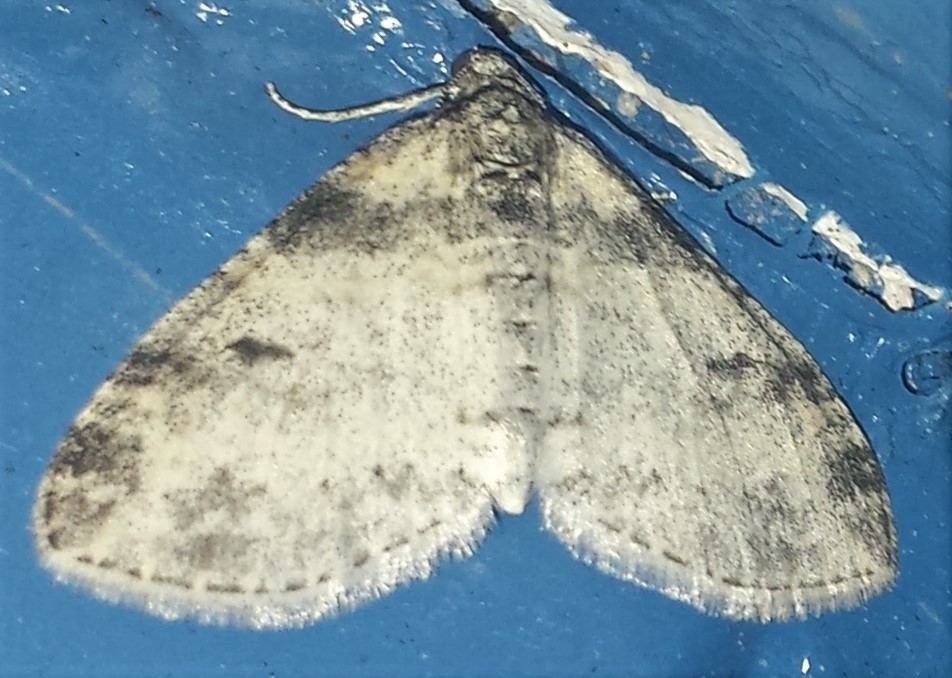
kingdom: Animalia
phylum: Arthropoda
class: Insecta
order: Lepidoptera
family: Geometridae
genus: Lobophora
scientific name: Lobophora nivigerata
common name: Powdered bigwing
